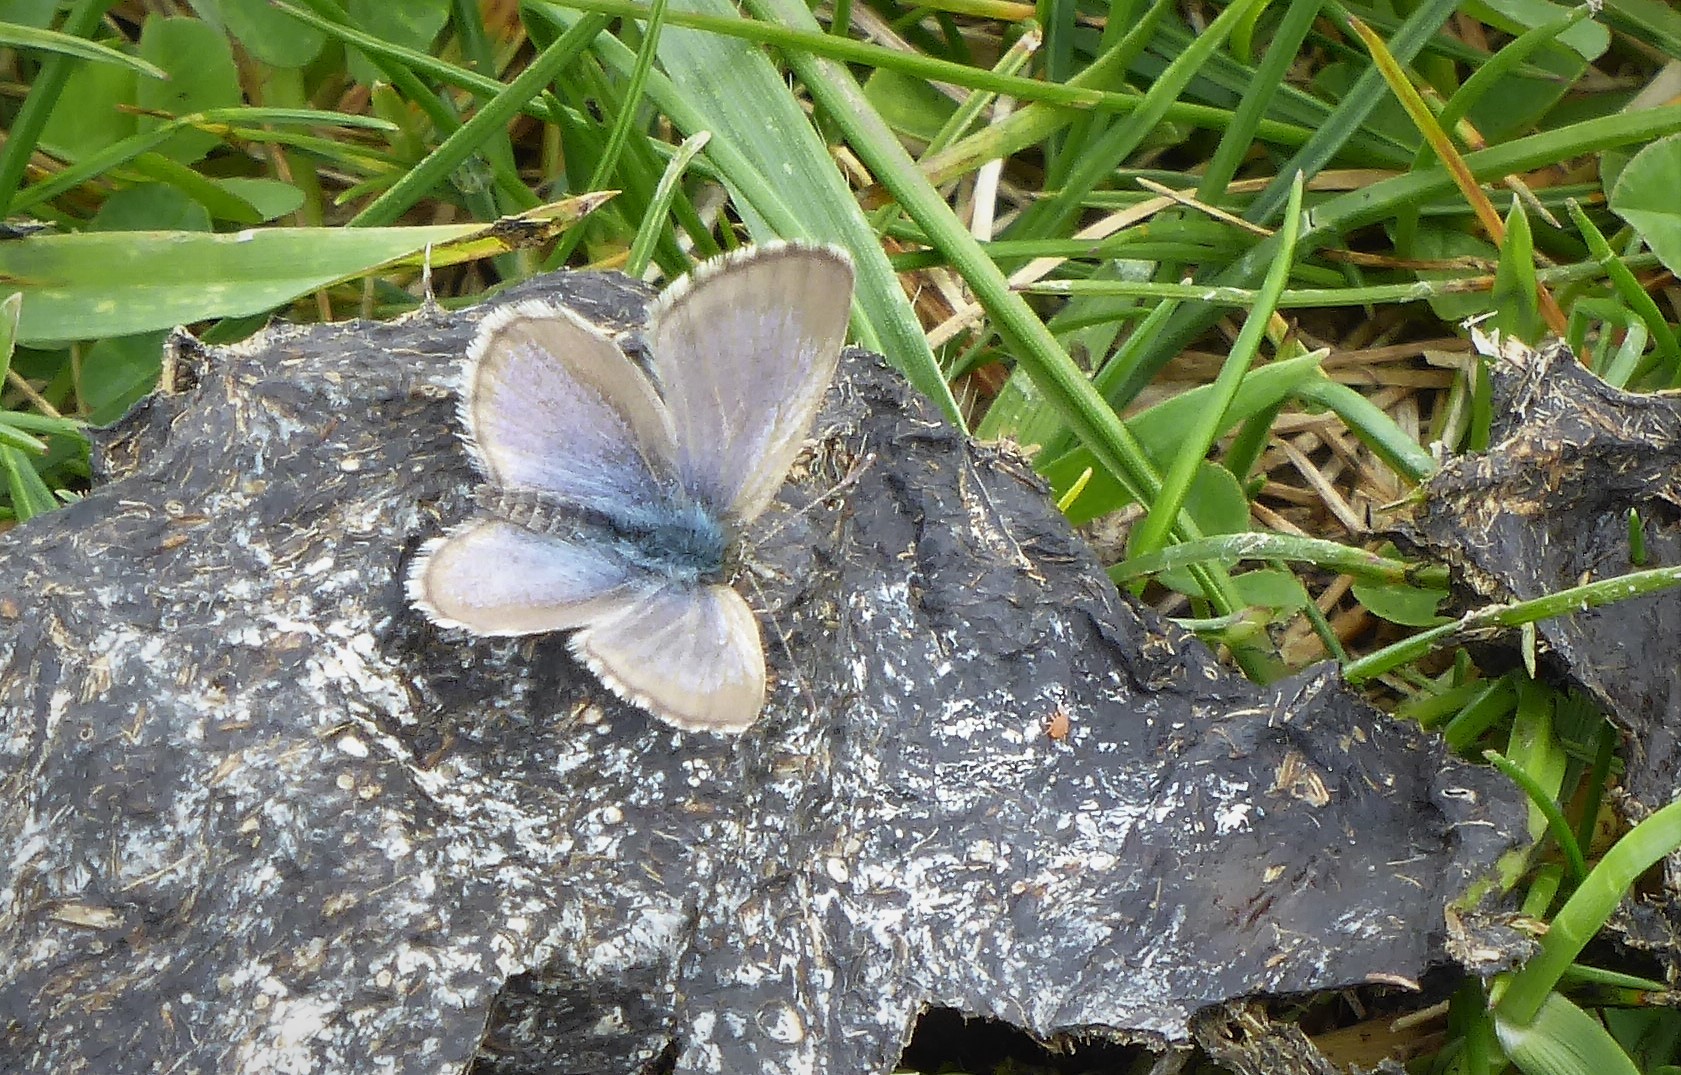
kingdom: Animalia
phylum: Arthropoda
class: Insecta
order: Lepidoptera
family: Lycaenidae
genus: Zizina
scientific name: Zizina oxleyi
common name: Southern blue
